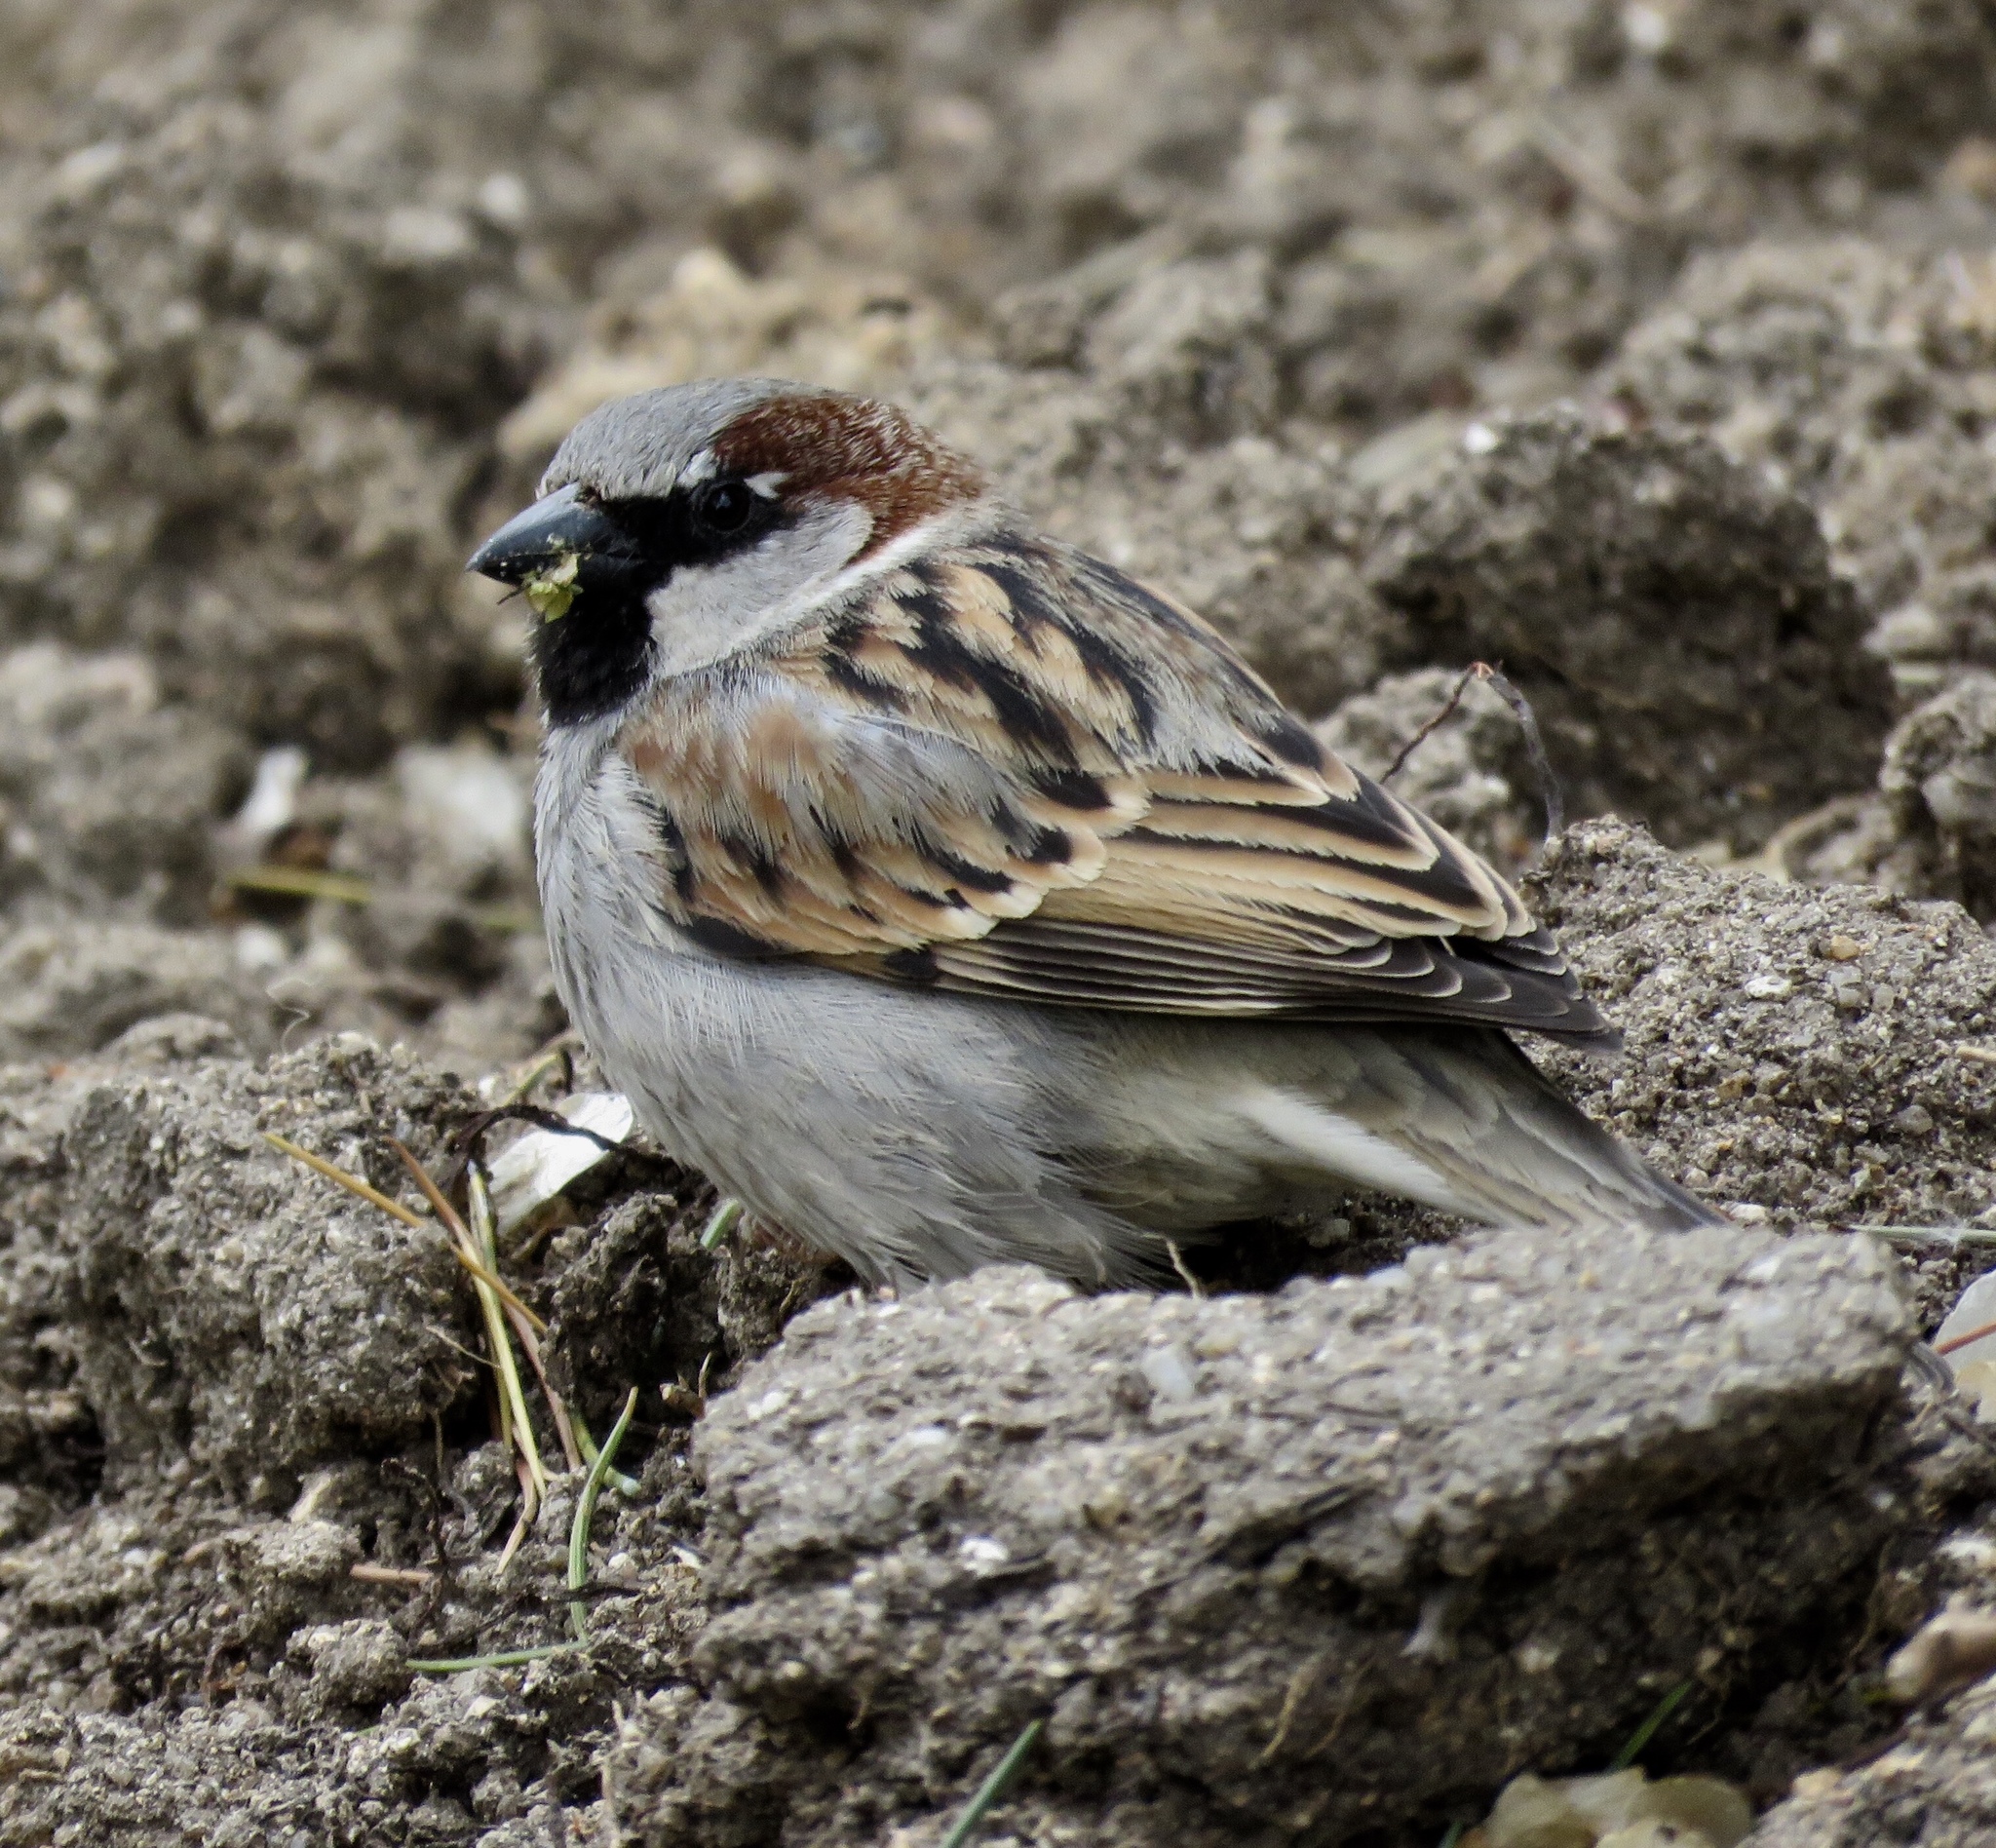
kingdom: Animalia
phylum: Chordata
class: Aves
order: Passeriformes
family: Passeridae
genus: Passer
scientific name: Passer domesticus
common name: House sparrow
